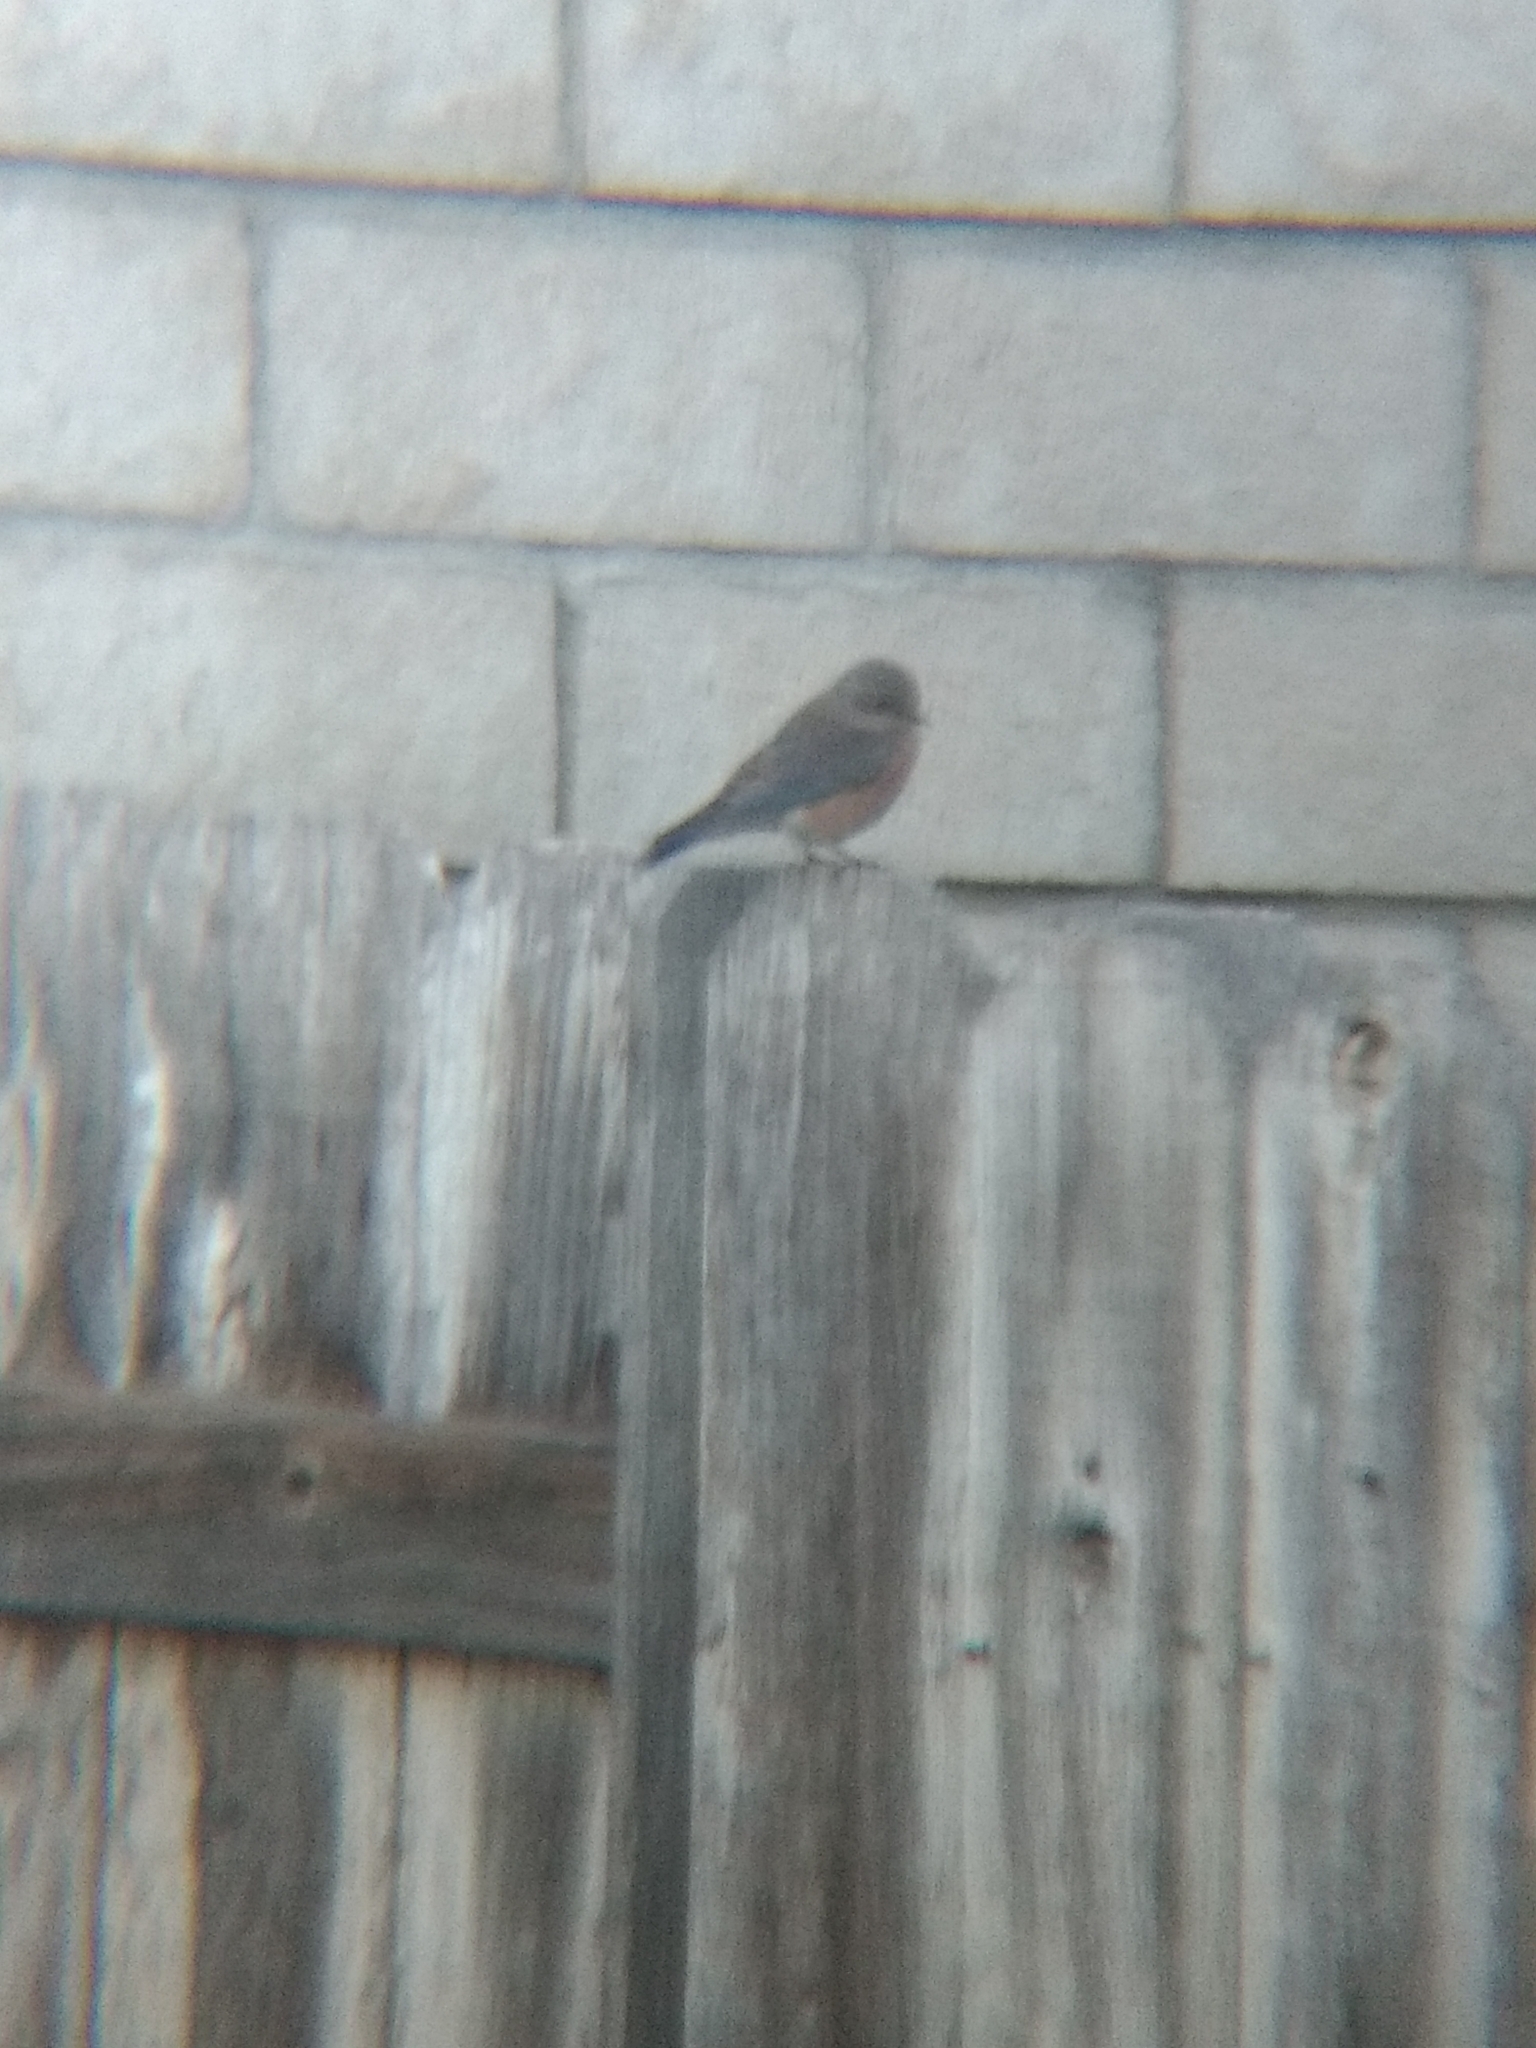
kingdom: Animalia
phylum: Chordata
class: Aves
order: Passeriformes
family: Turdidae
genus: Sialia
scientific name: Sialia mexicana
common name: Western bluebird
